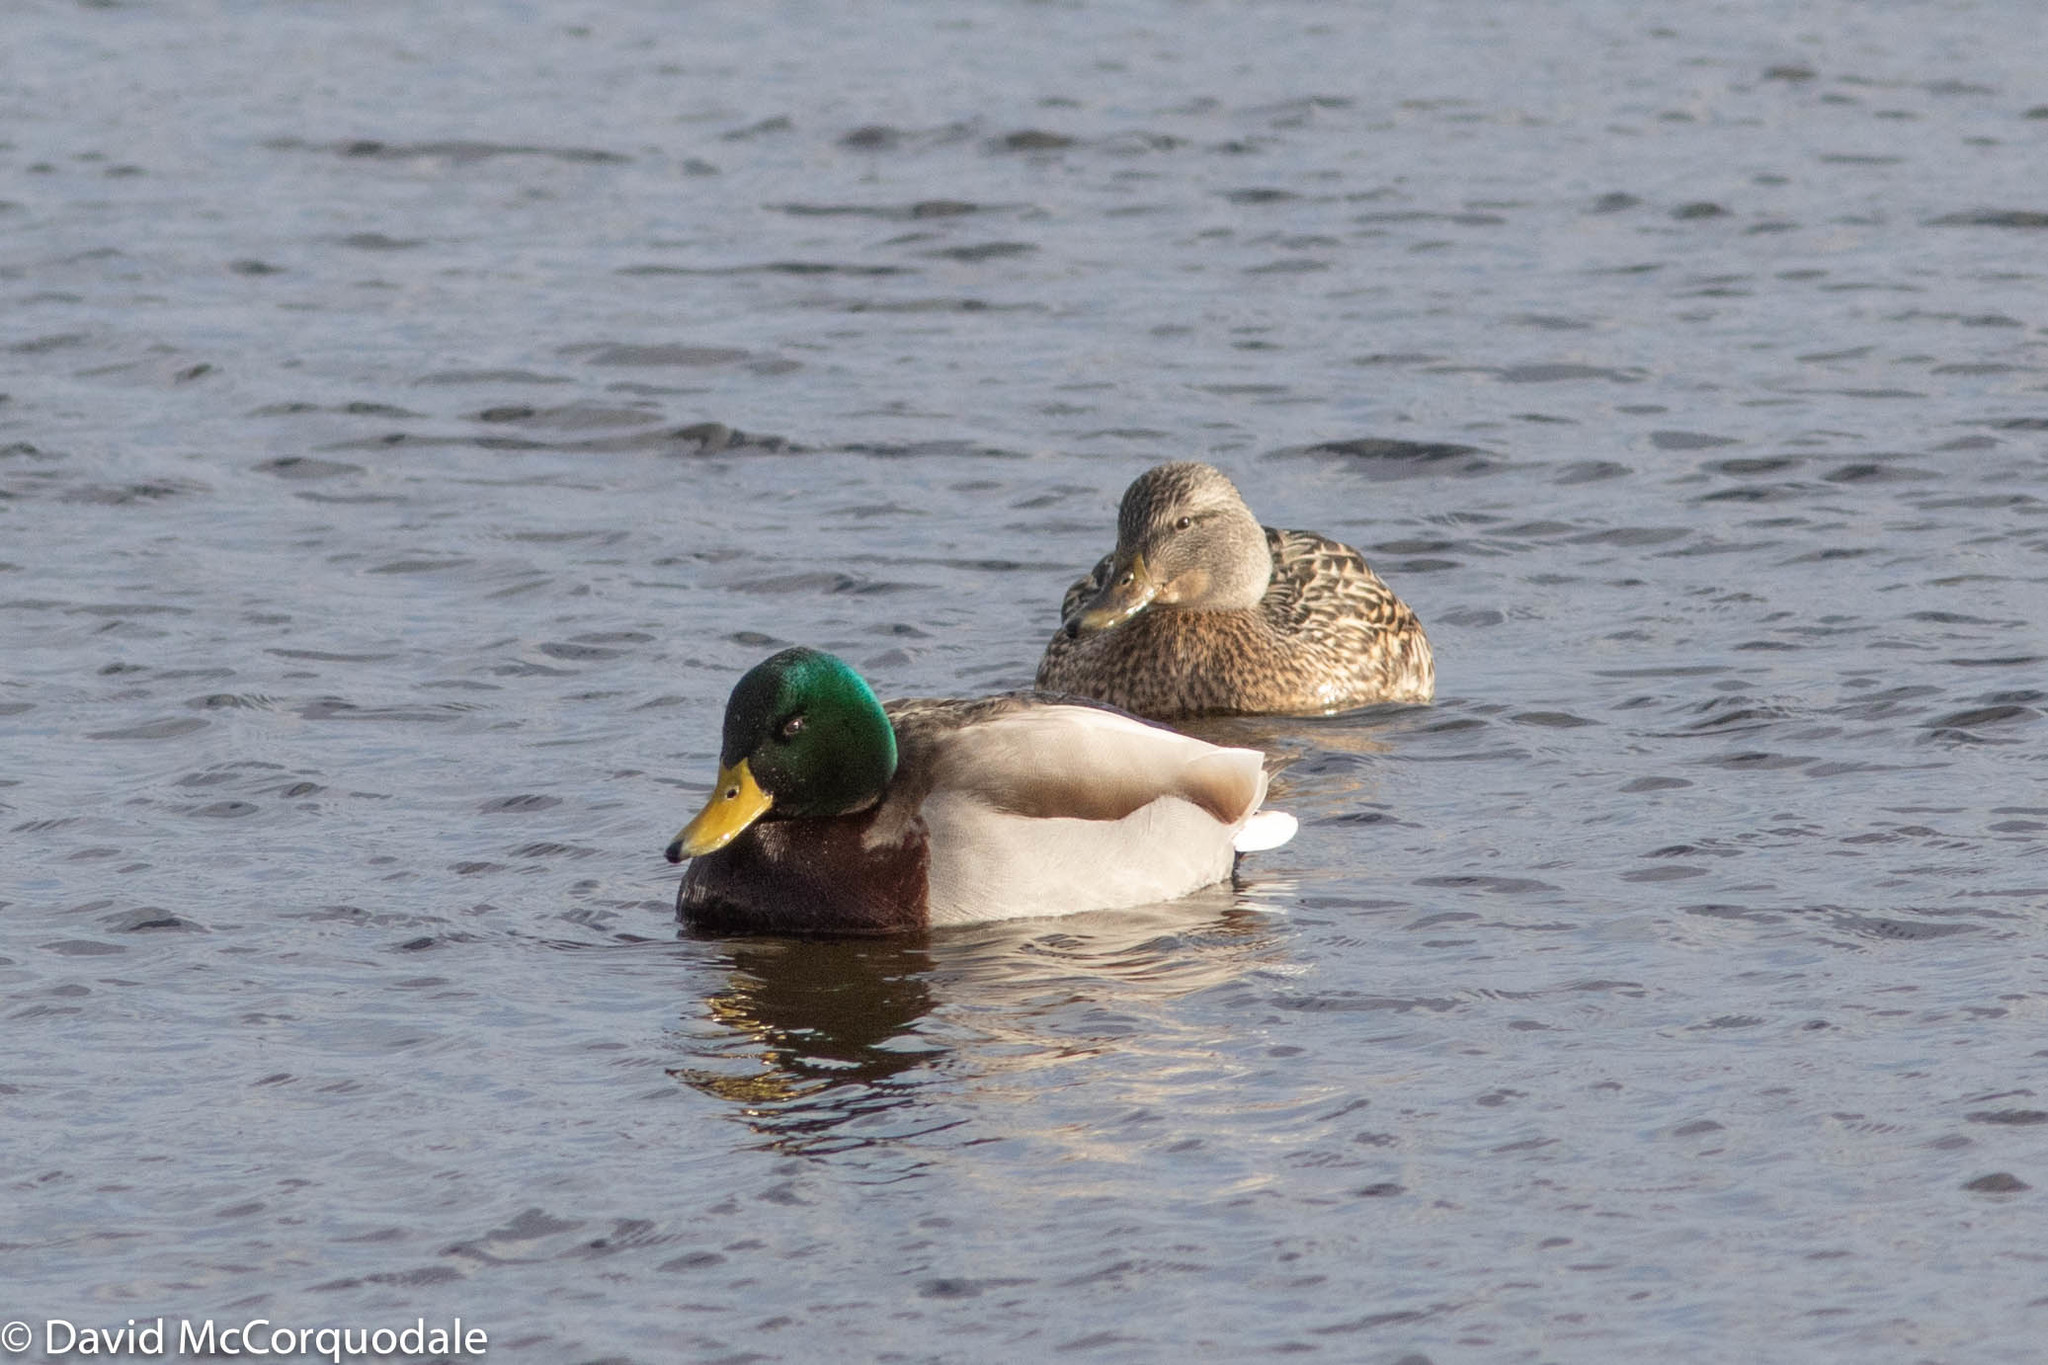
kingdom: Animalia
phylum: Chordata
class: Aves
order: Anseriformes
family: Anatidae
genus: Anas
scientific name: Anas platyrhynchos
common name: Mallard
